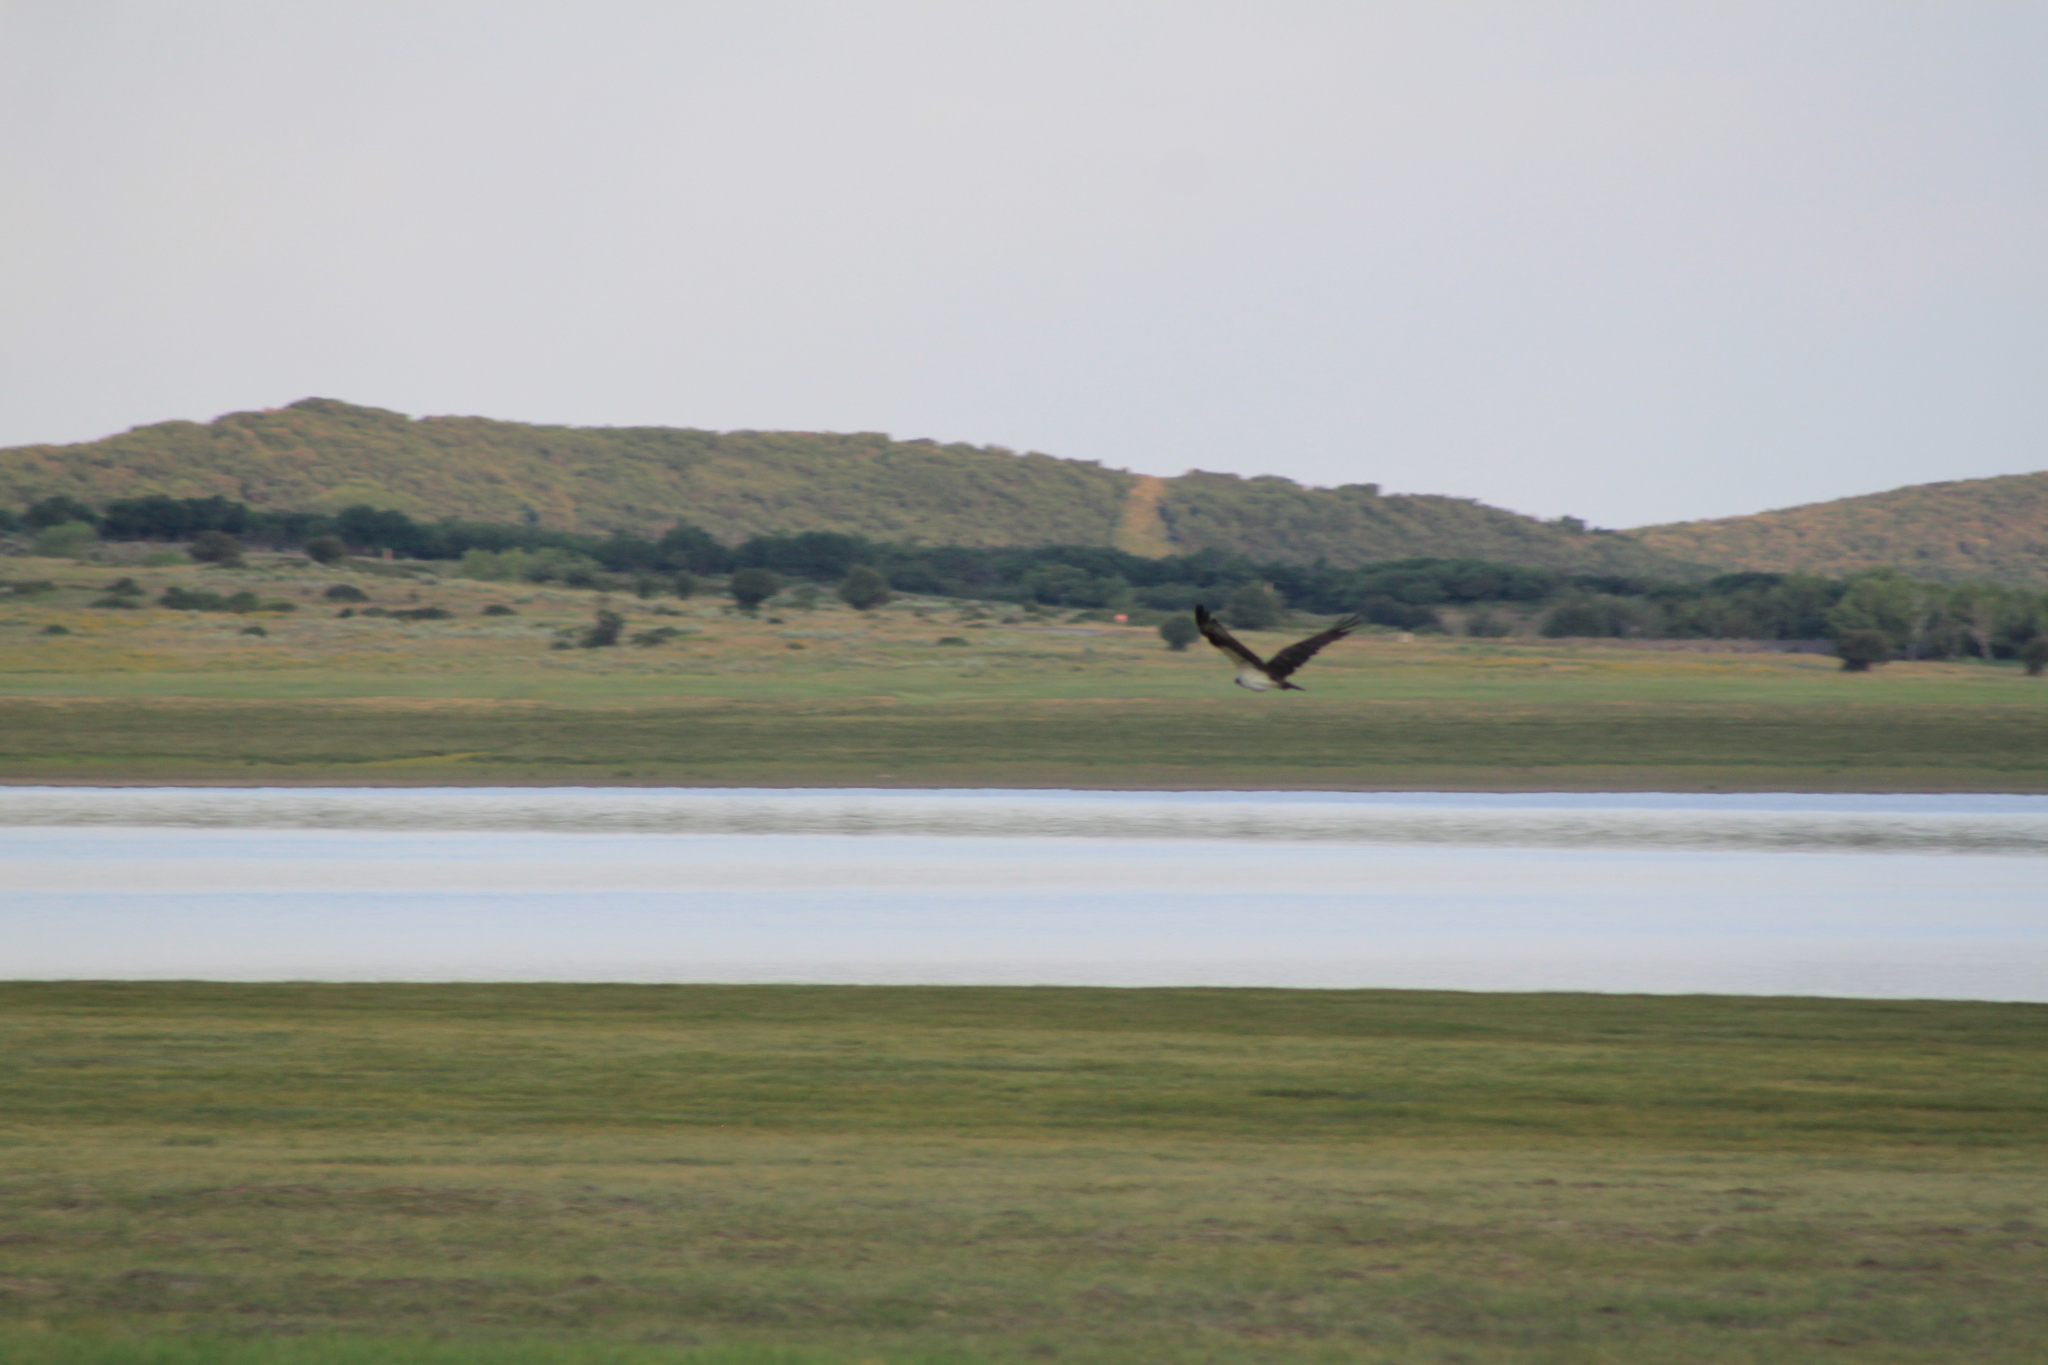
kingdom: Animalia
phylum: Chordata
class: Aves
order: Accipitriformes
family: Pandionidae
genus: Pandion
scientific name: Pandion haliaetus
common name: Osprey
